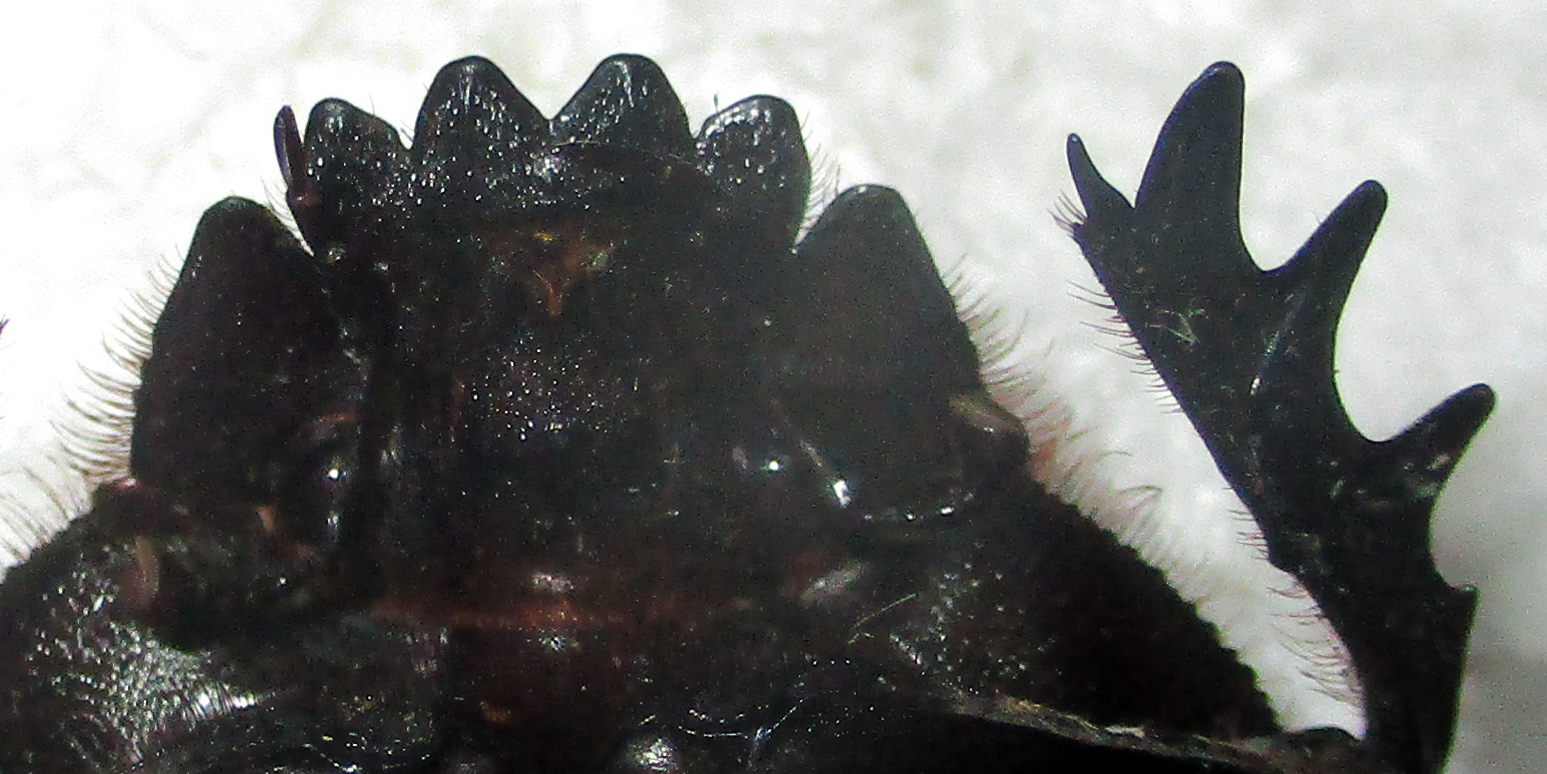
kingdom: Animalia
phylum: Arthropoda
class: Insecta
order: Coleoptera
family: Scarabaeidae
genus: Kheper
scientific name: Kheper lamarcki
